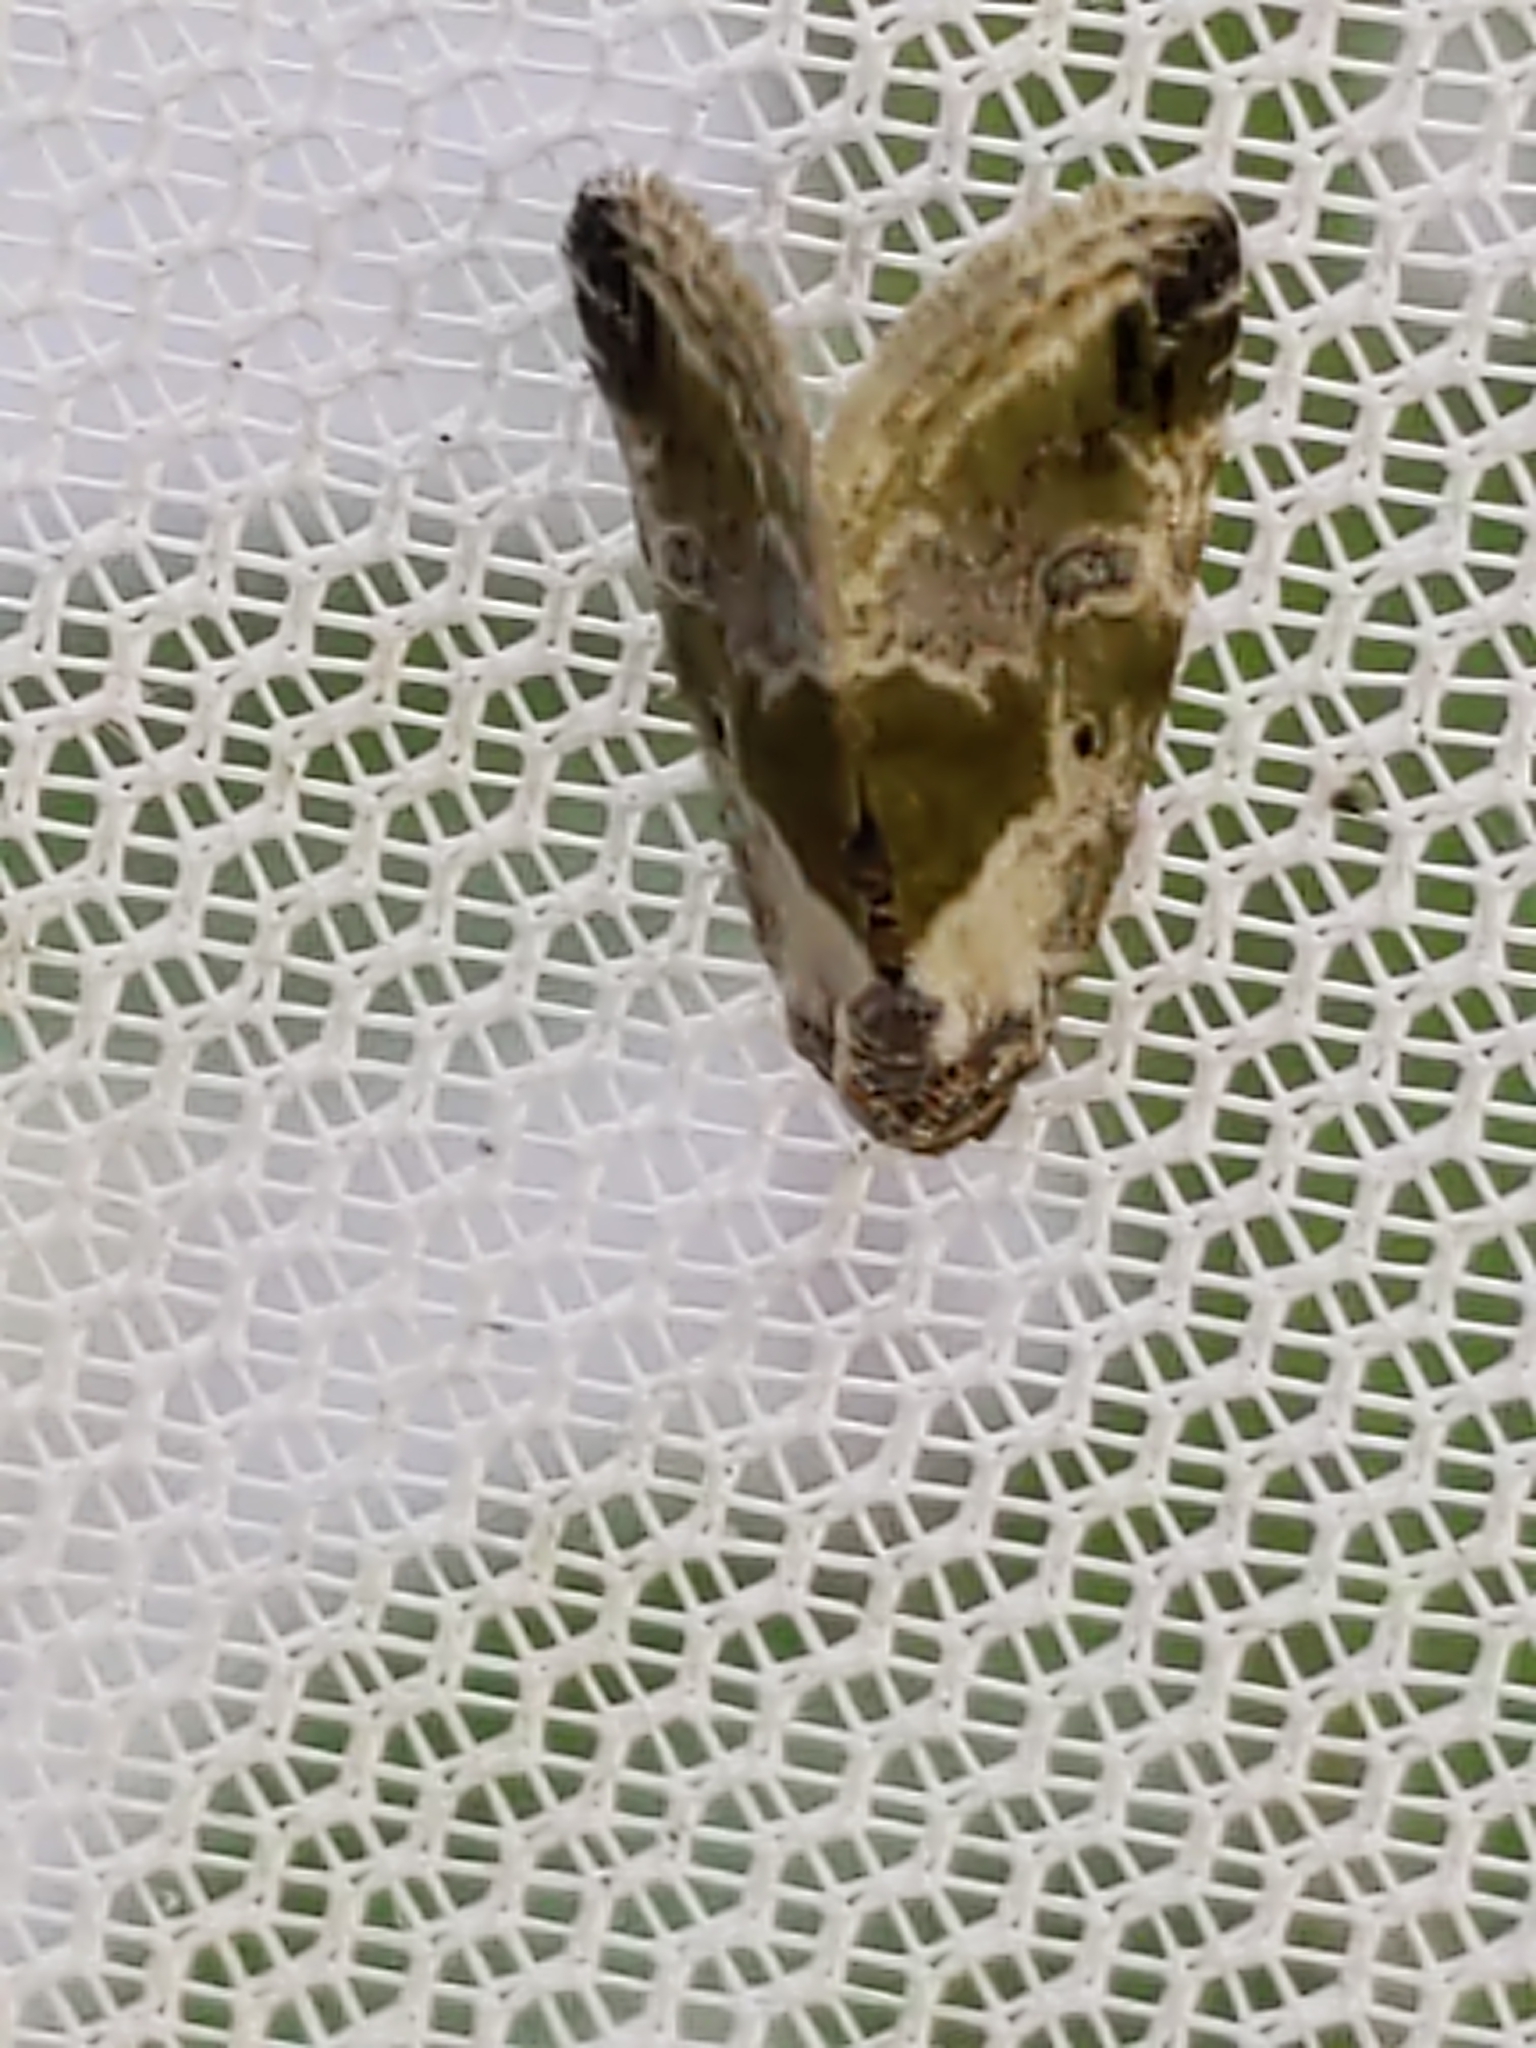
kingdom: Animalia
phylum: Arthropoda
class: Insecta
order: Lepidoptera
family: Noctuidae
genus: Maliattha
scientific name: Maliattha synochitis
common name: Black-dotted glyph
